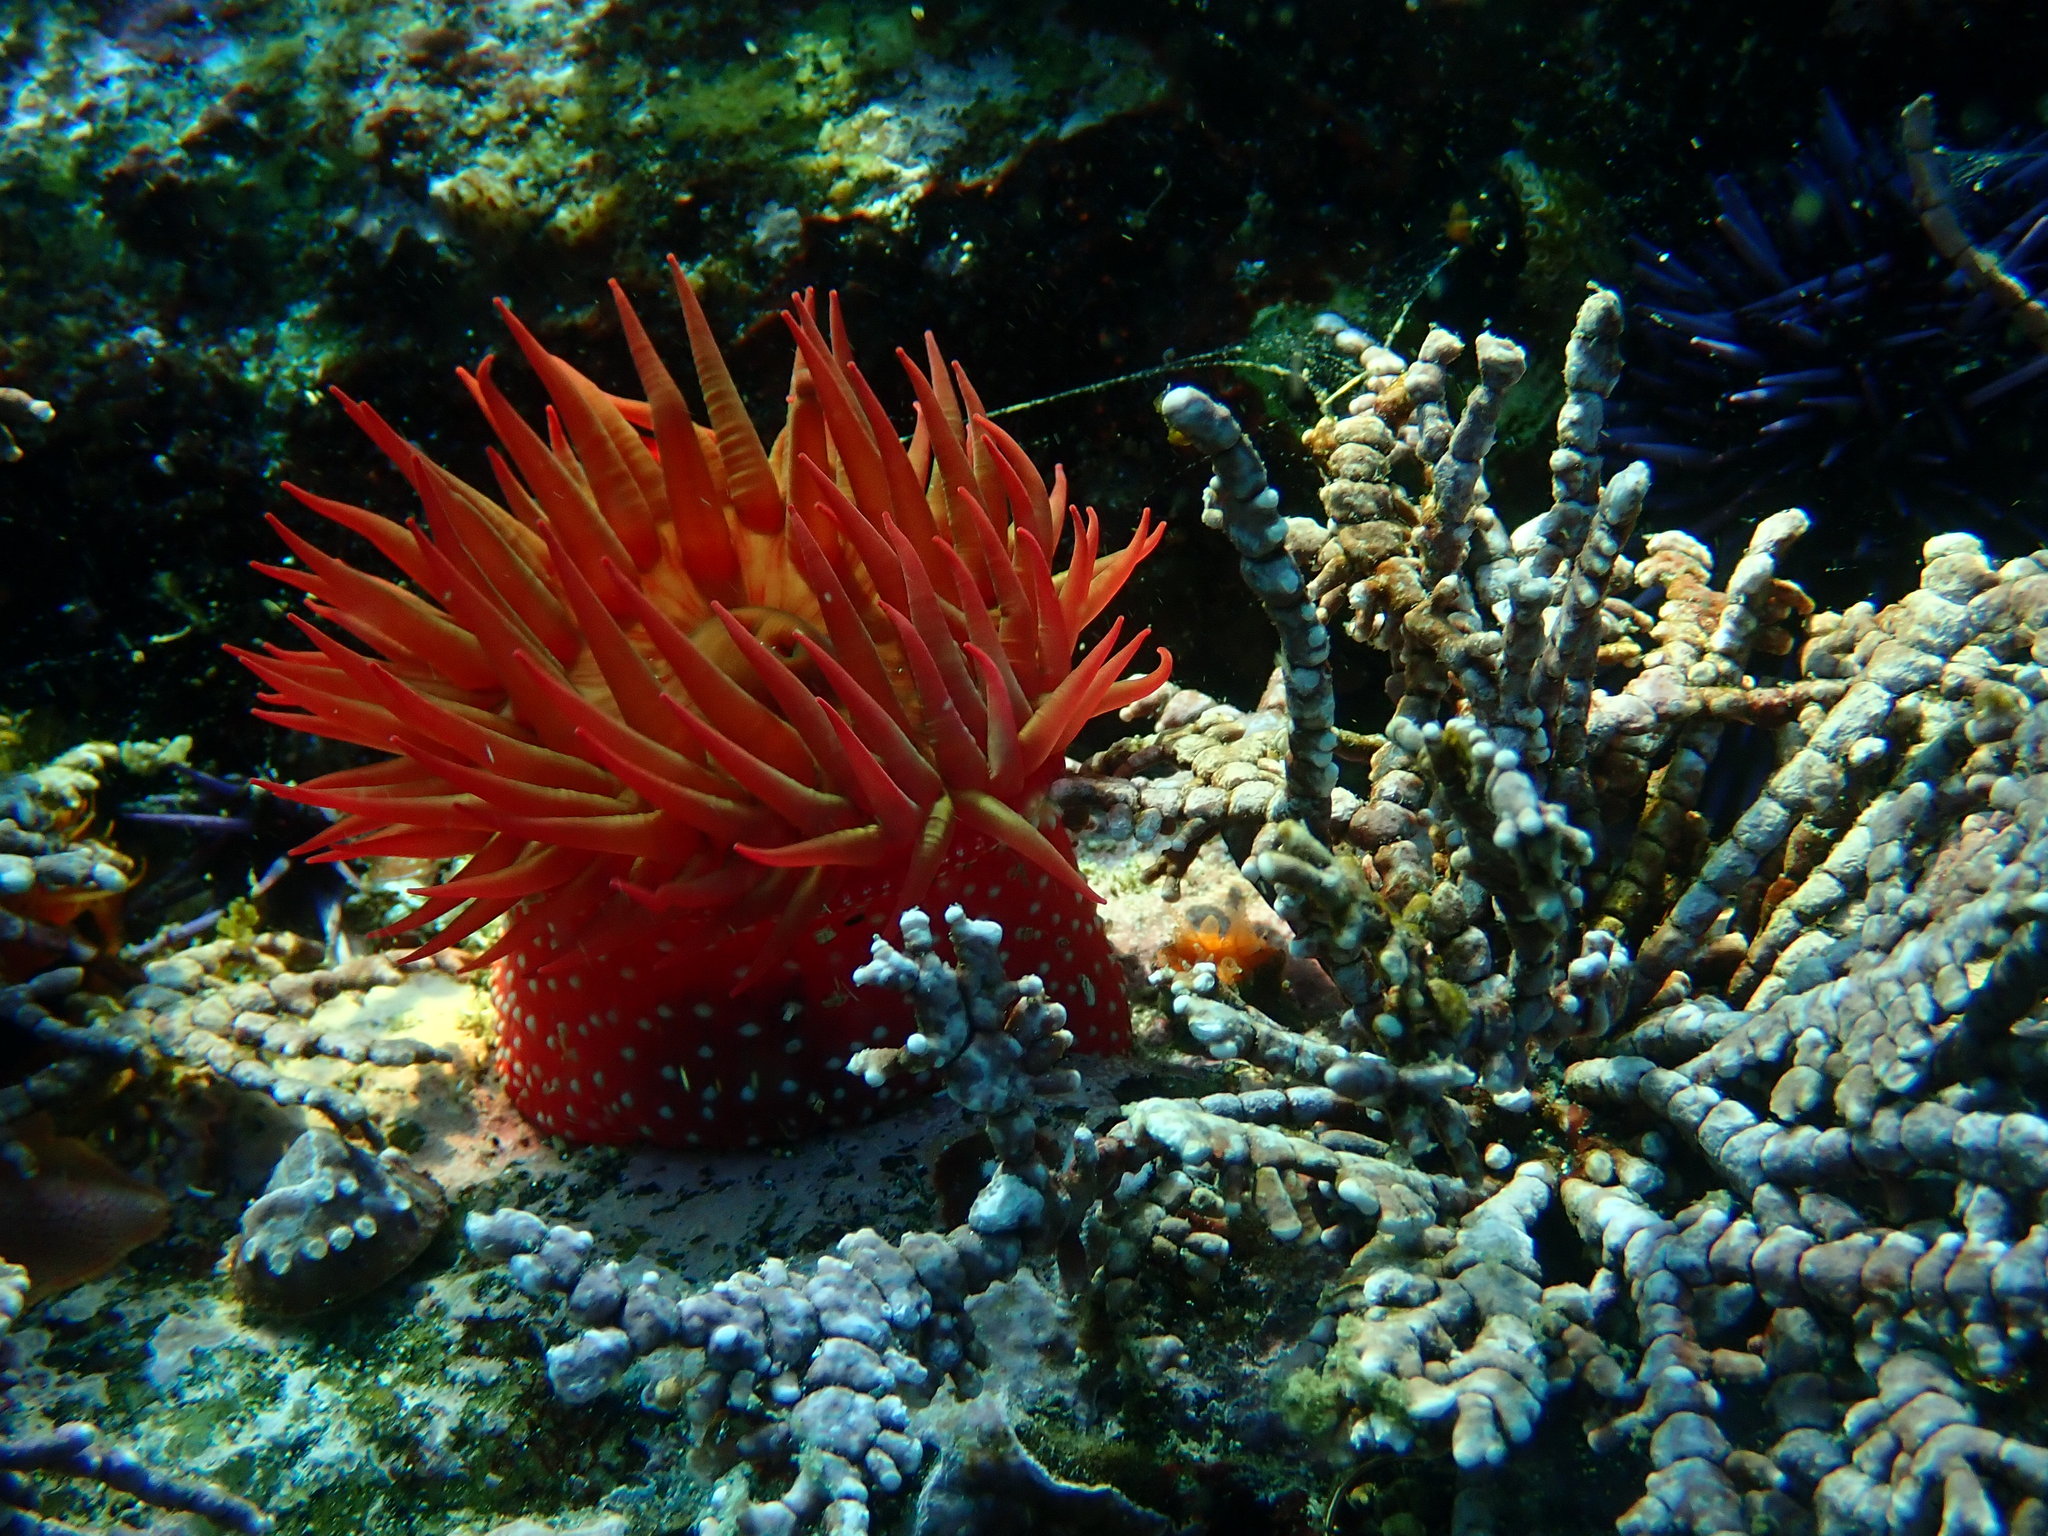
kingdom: Animalia
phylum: Cnidaria
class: Anthozoa
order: Actiniaria
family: Actiniidae
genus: Cribrinopsis
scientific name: Cribrinopsis albopunctata
